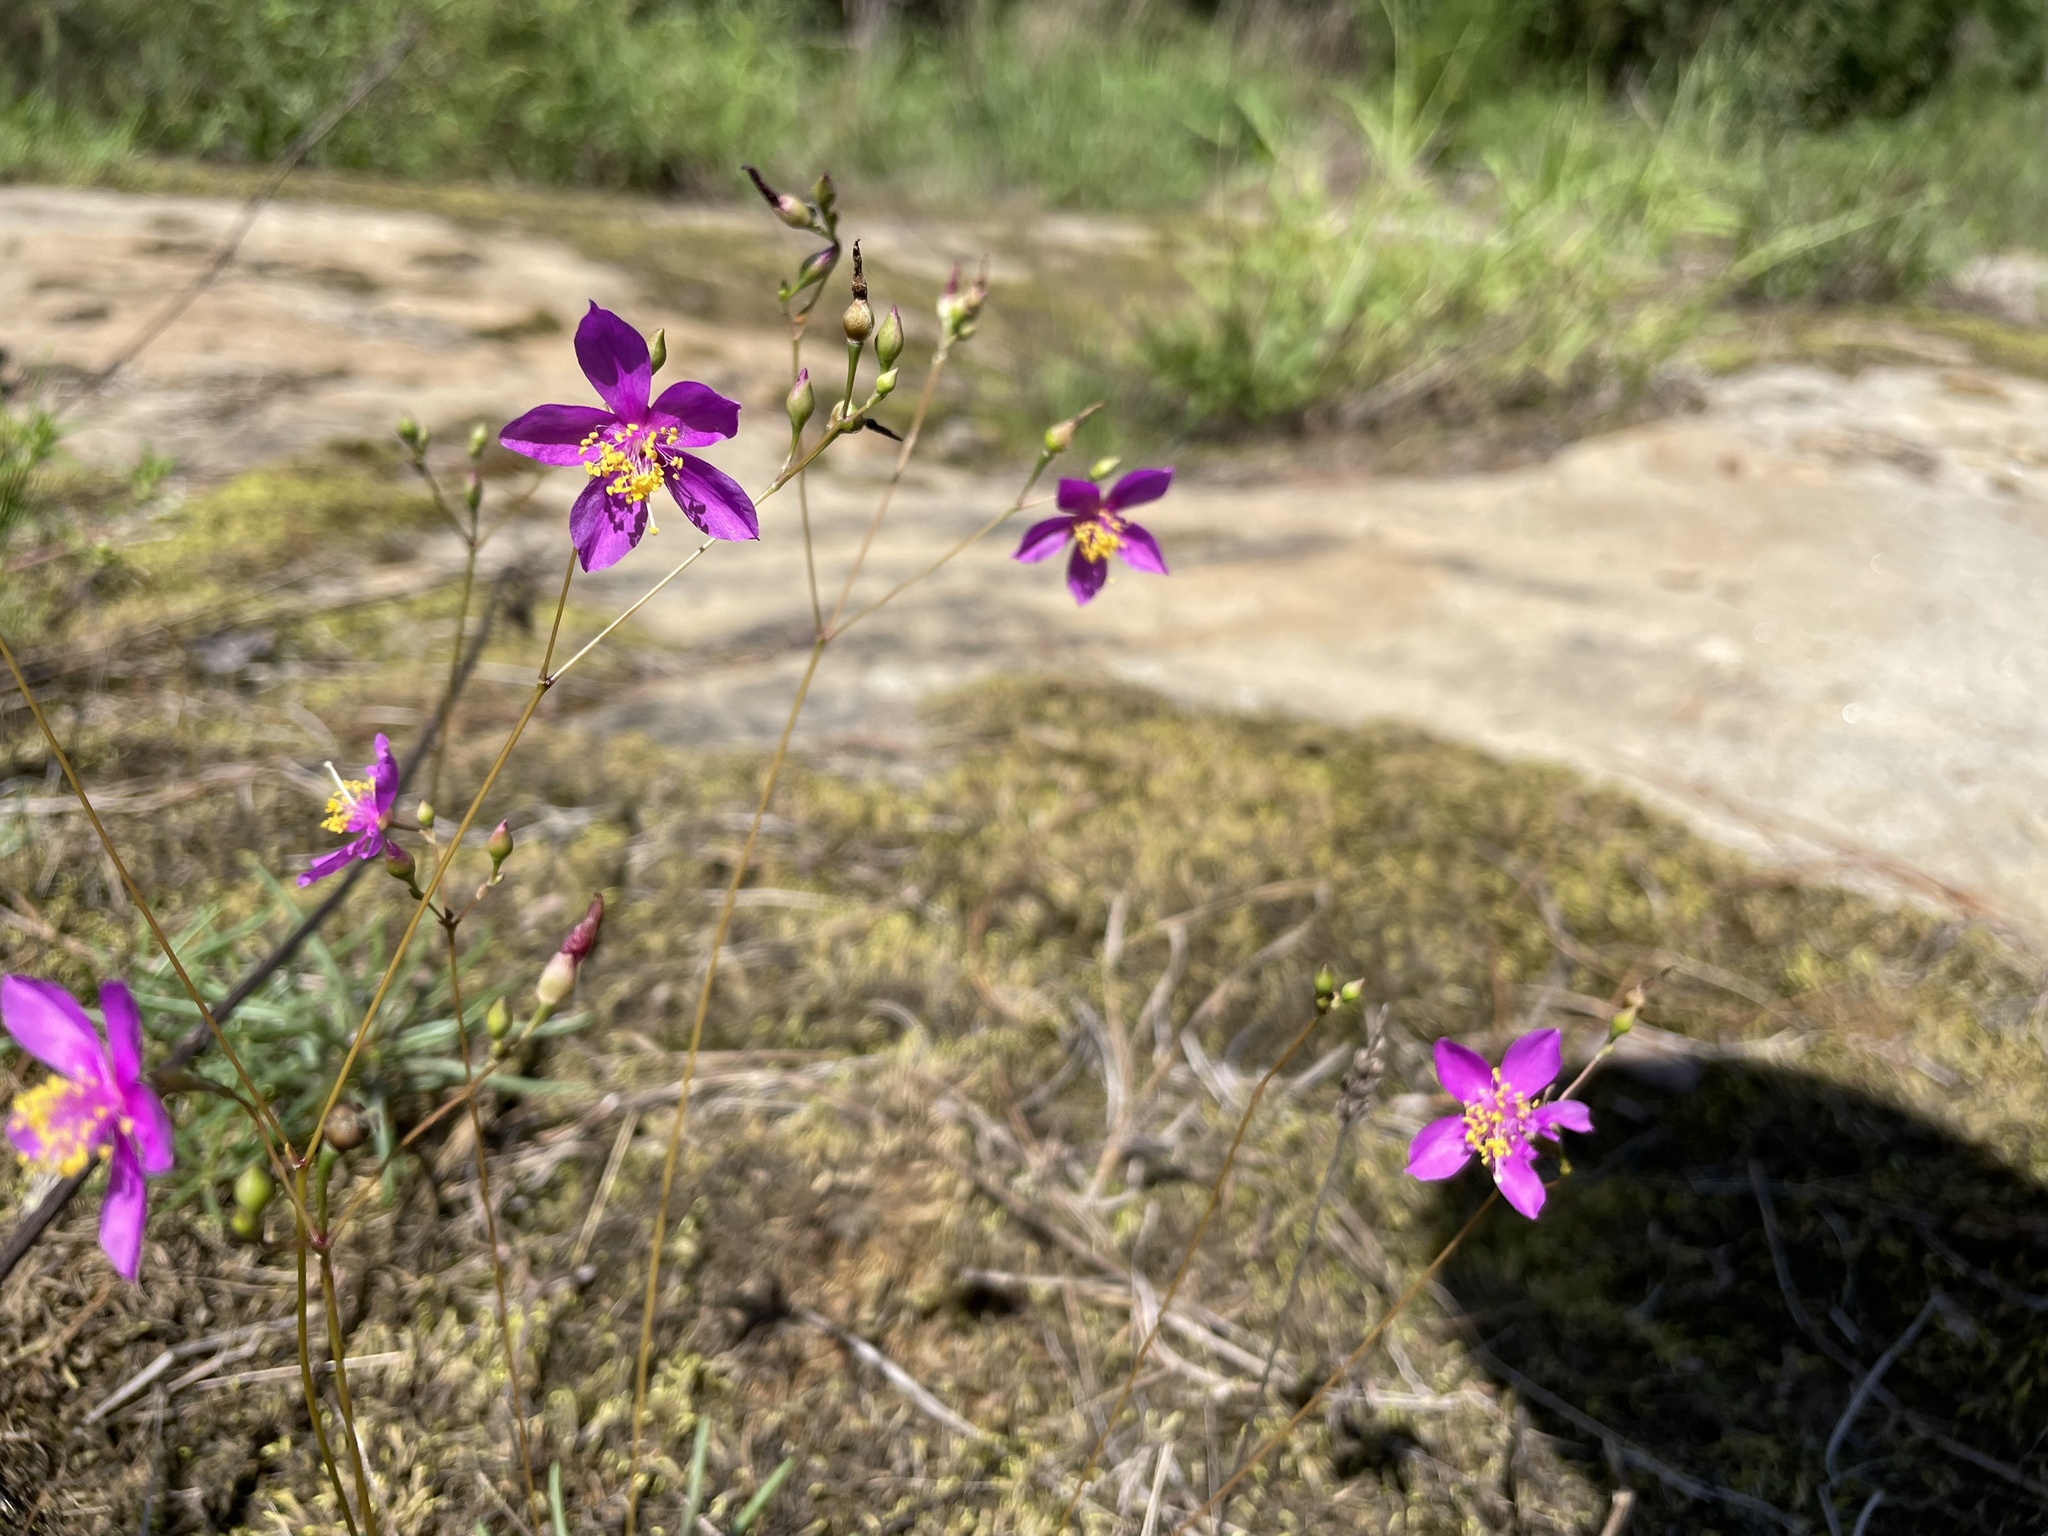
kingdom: Plantae
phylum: Tracheophyta
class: Magnoliopsida
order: Caryophyllales
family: Montiaceae
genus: Phemeranthus
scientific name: Phemeranthus mengesii
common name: Menges' fameflower
